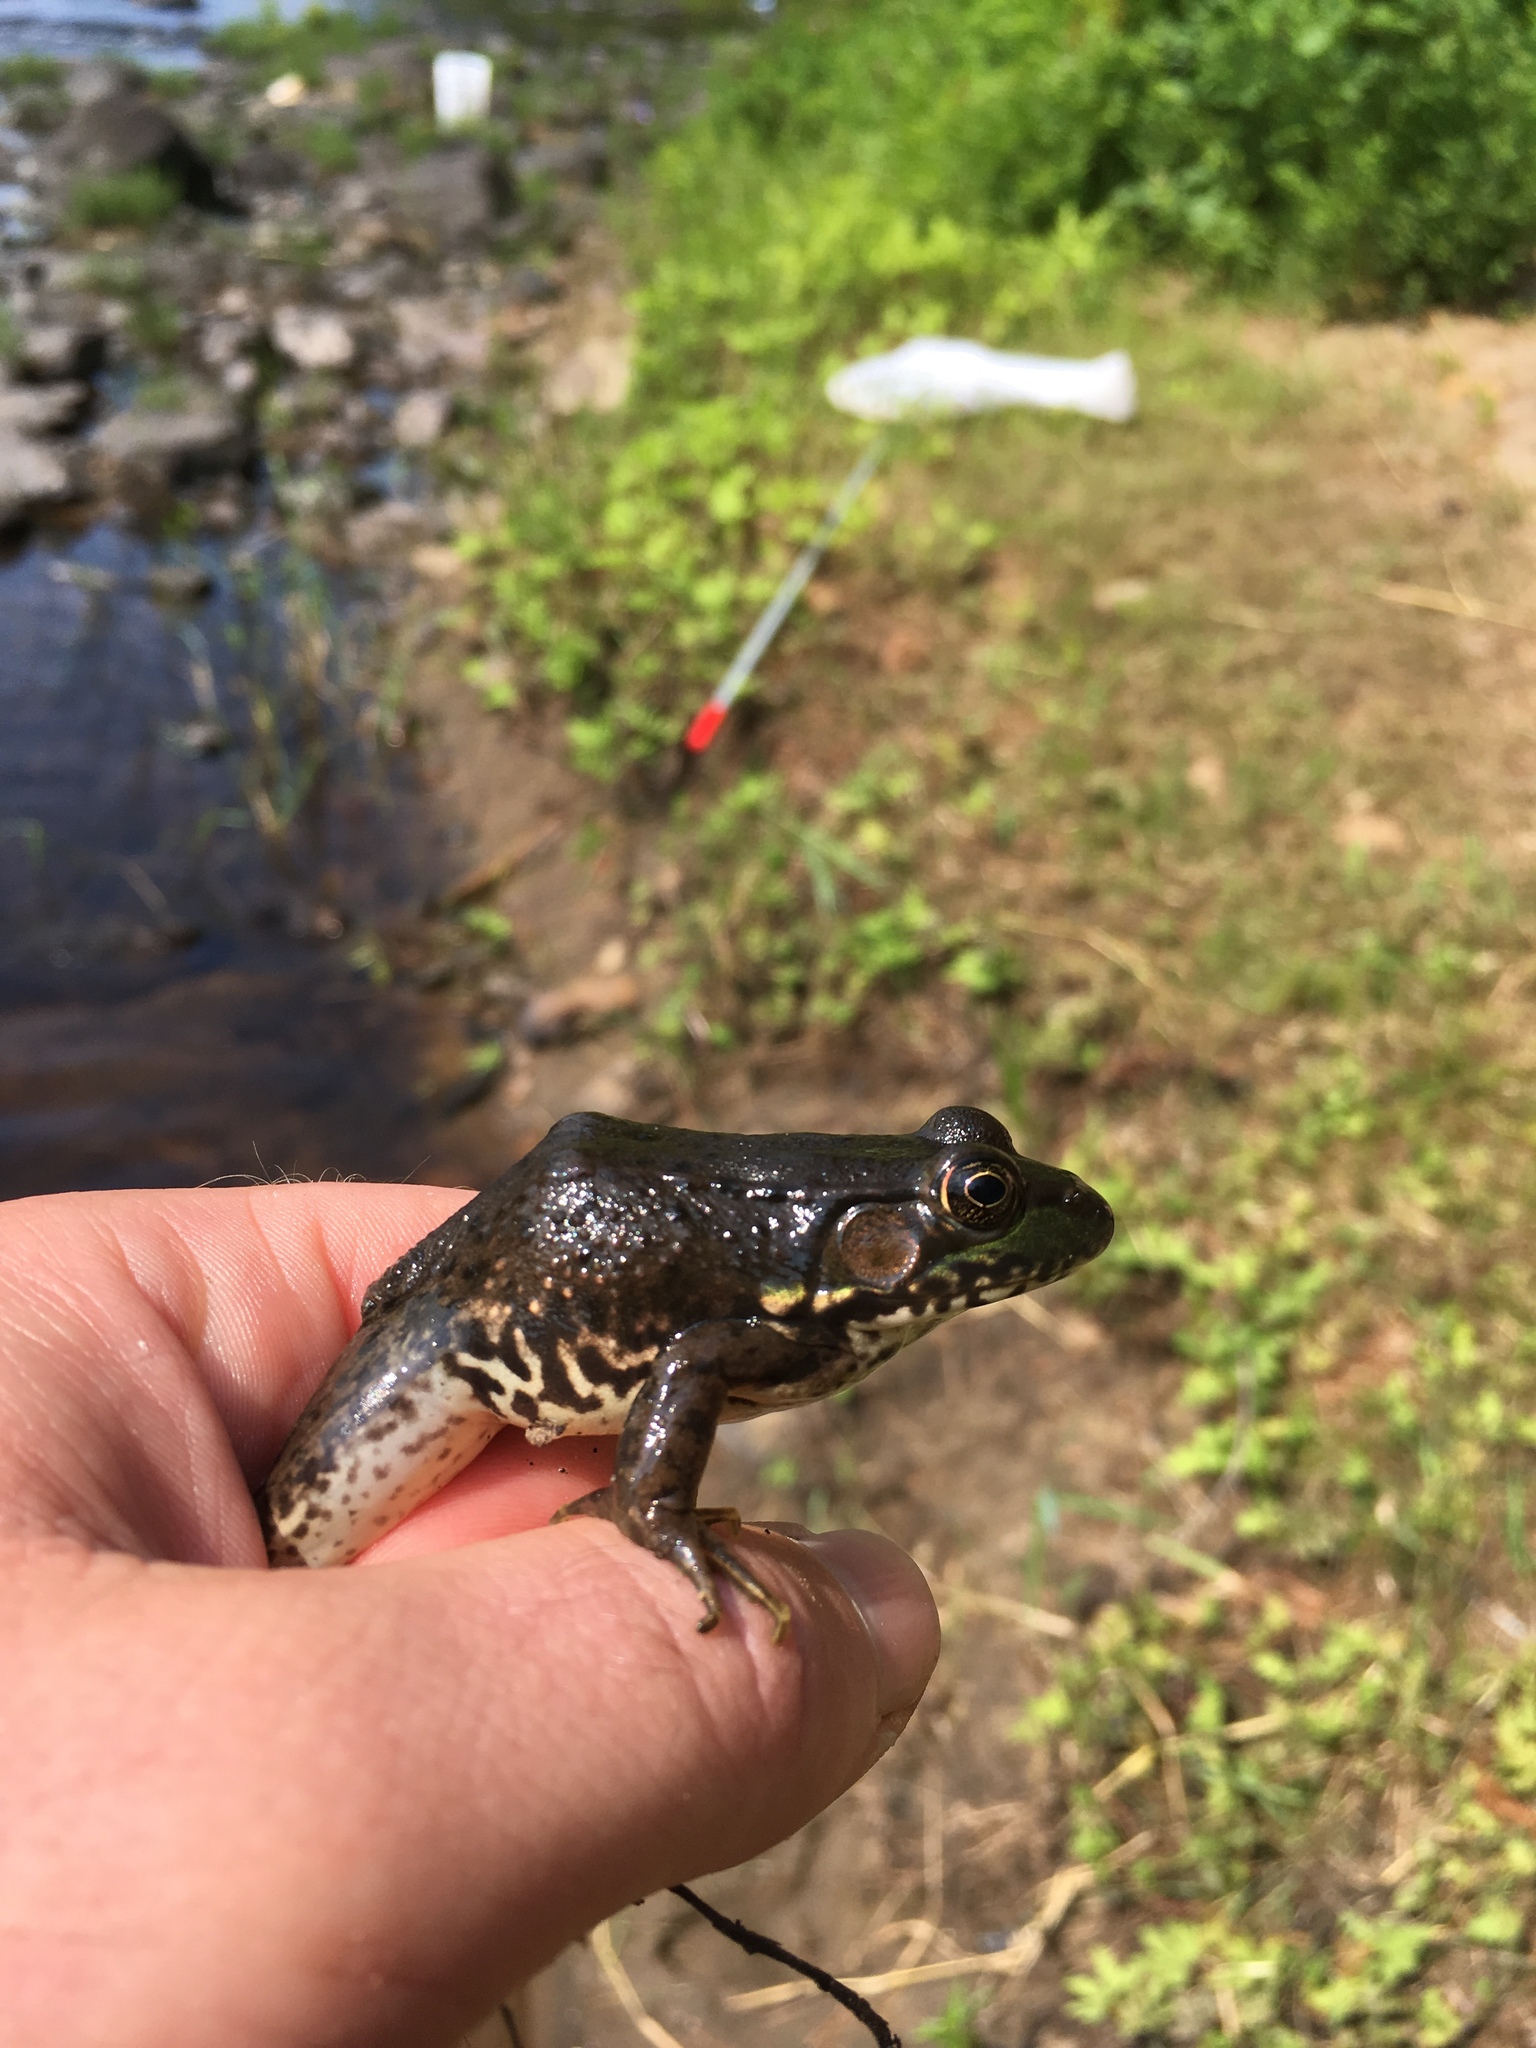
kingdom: Animalia
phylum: Chordata
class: Amphibia
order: Anura
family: Ranidae
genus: Lithobates
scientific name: Lithobates clamitans
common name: Green frog
